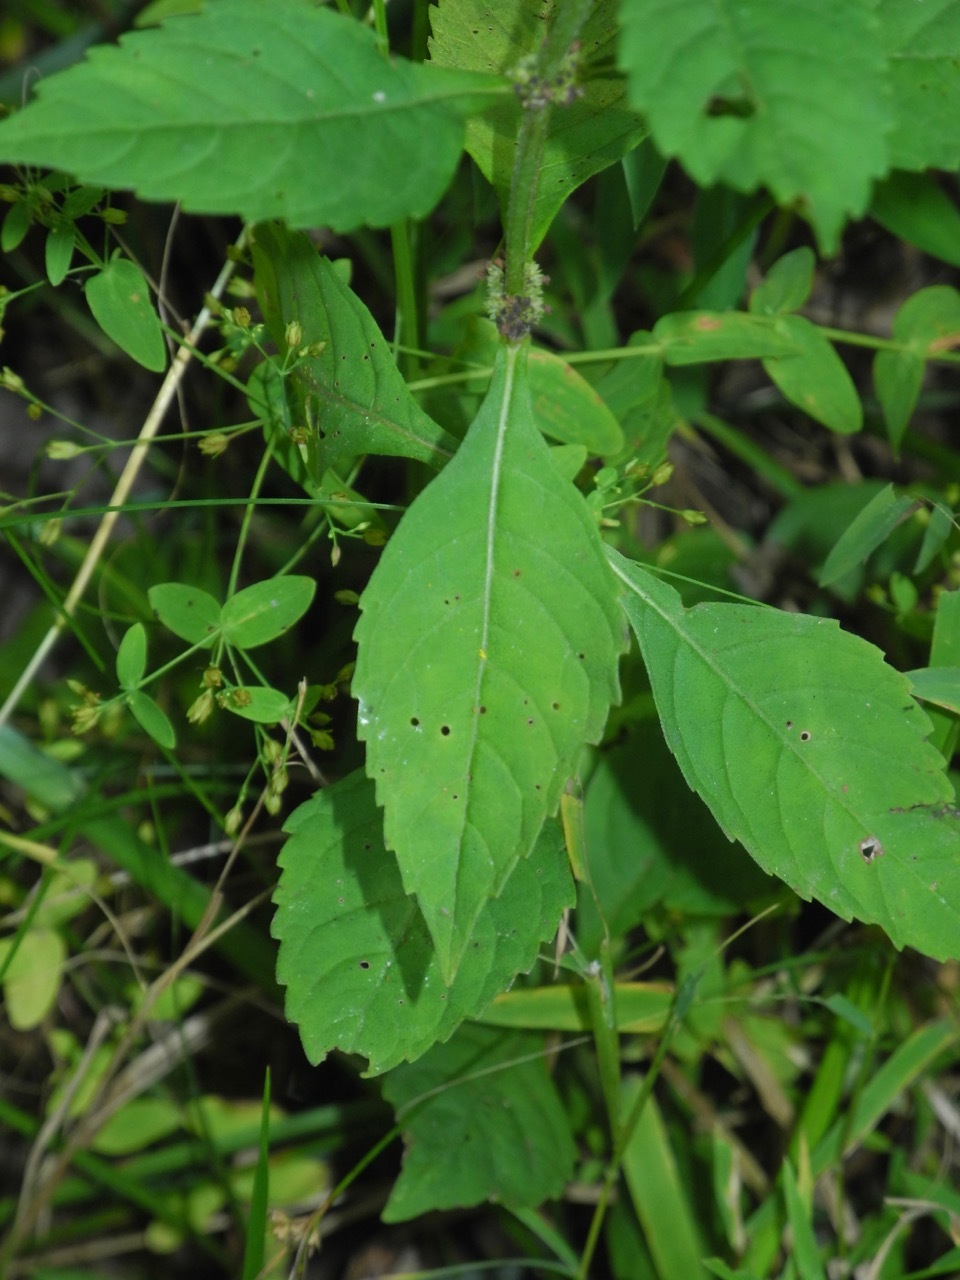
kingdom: Plantae
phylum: Tracheophyta
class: Magnoliopsida
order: Lamiales
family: Lamiaceae
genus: Lycopus
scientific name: Lycopus uniflorus
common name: Northern bugleweed
